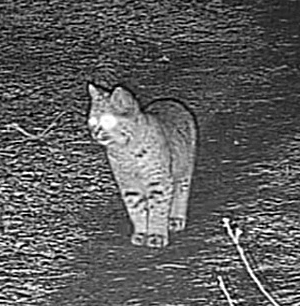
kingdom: Animalia
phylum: Chordata
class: Mammalia
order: Carnivora
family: Felidae
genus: Lynx
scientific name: Lynx rufus
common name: Bobcat
